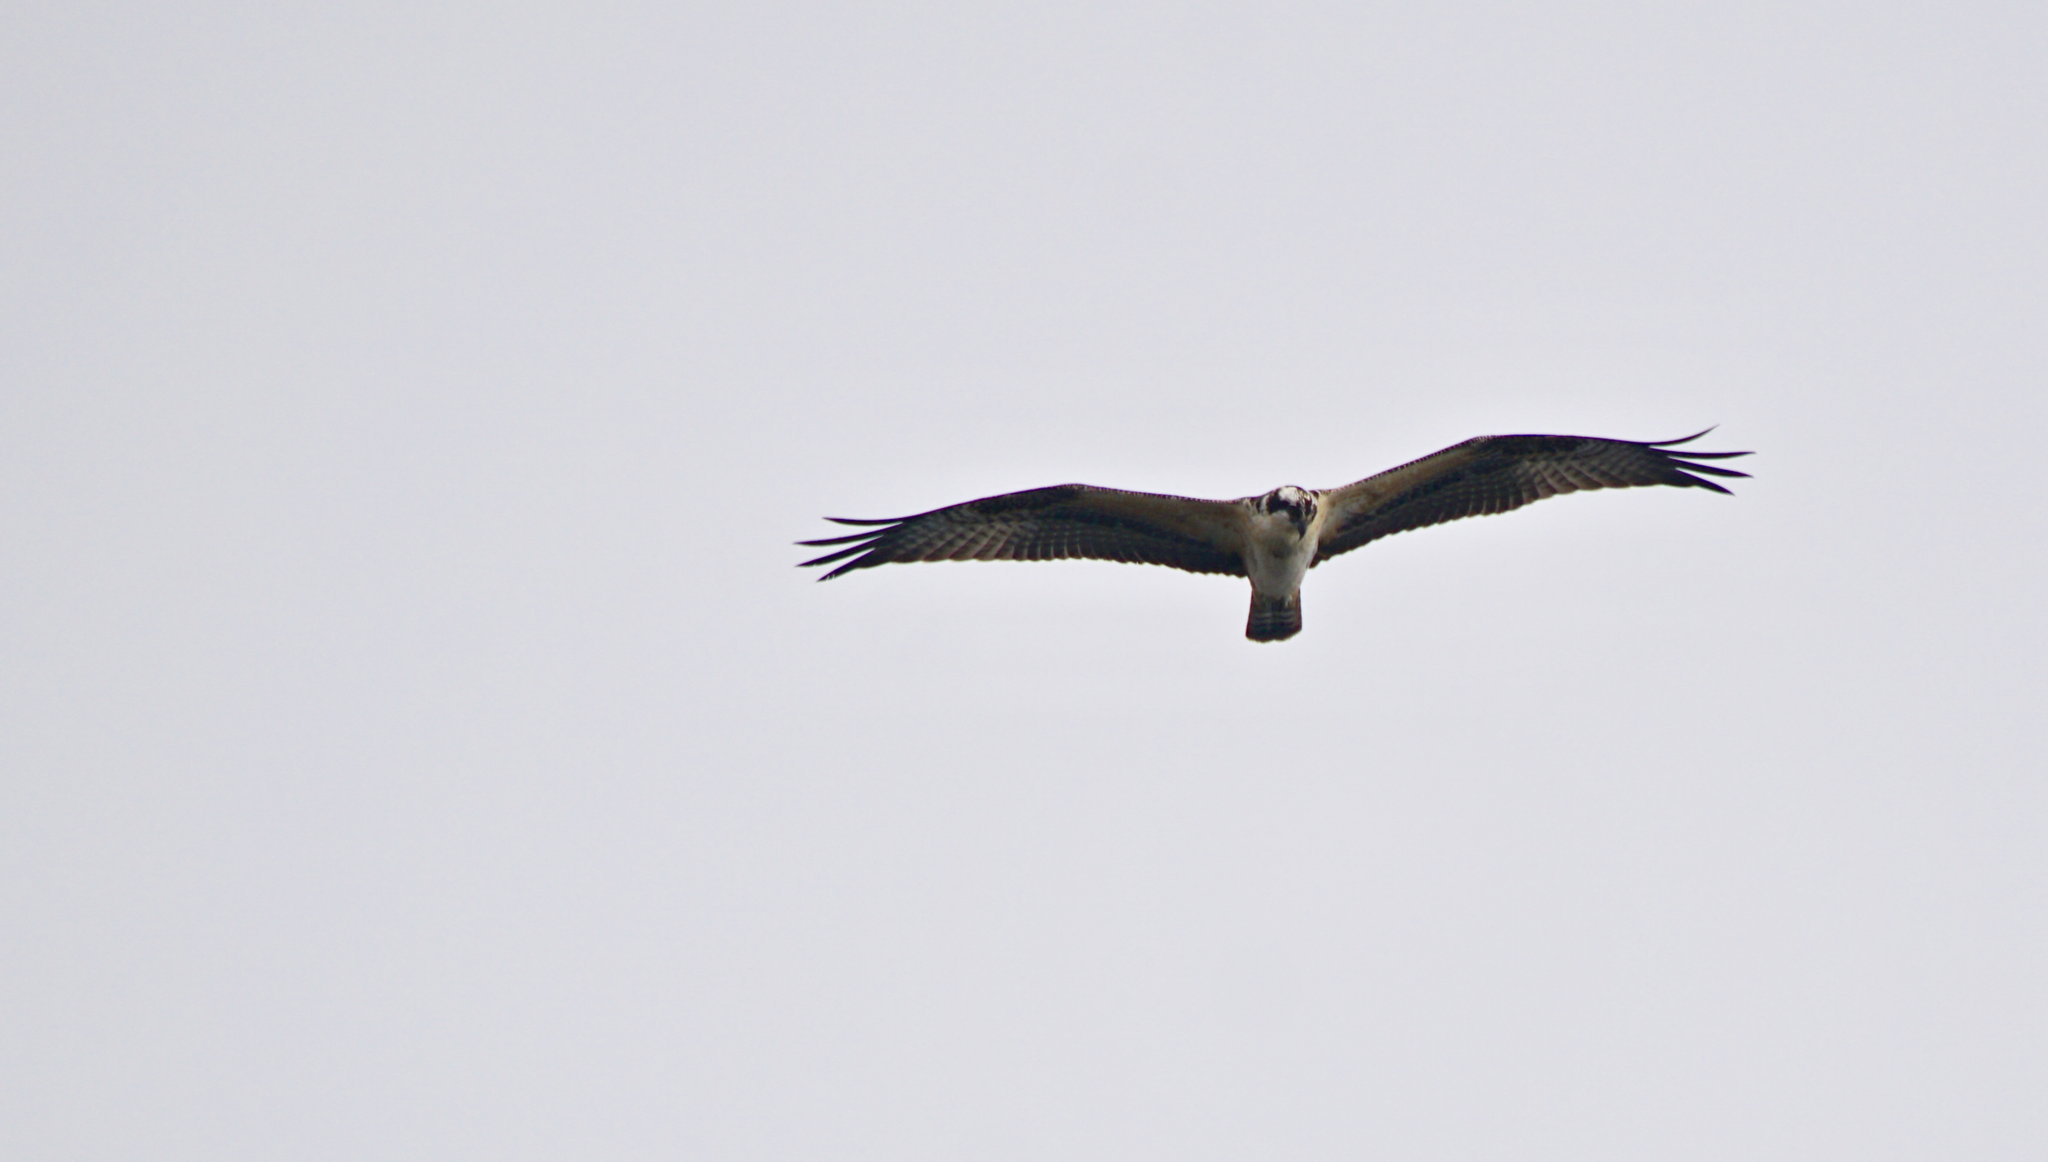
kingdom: Animalia
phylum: Chordata
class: Aves
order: Accipitriformes
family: Pandionidae
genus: Pandion
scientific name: Pandion haliaetus
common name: Osprey
